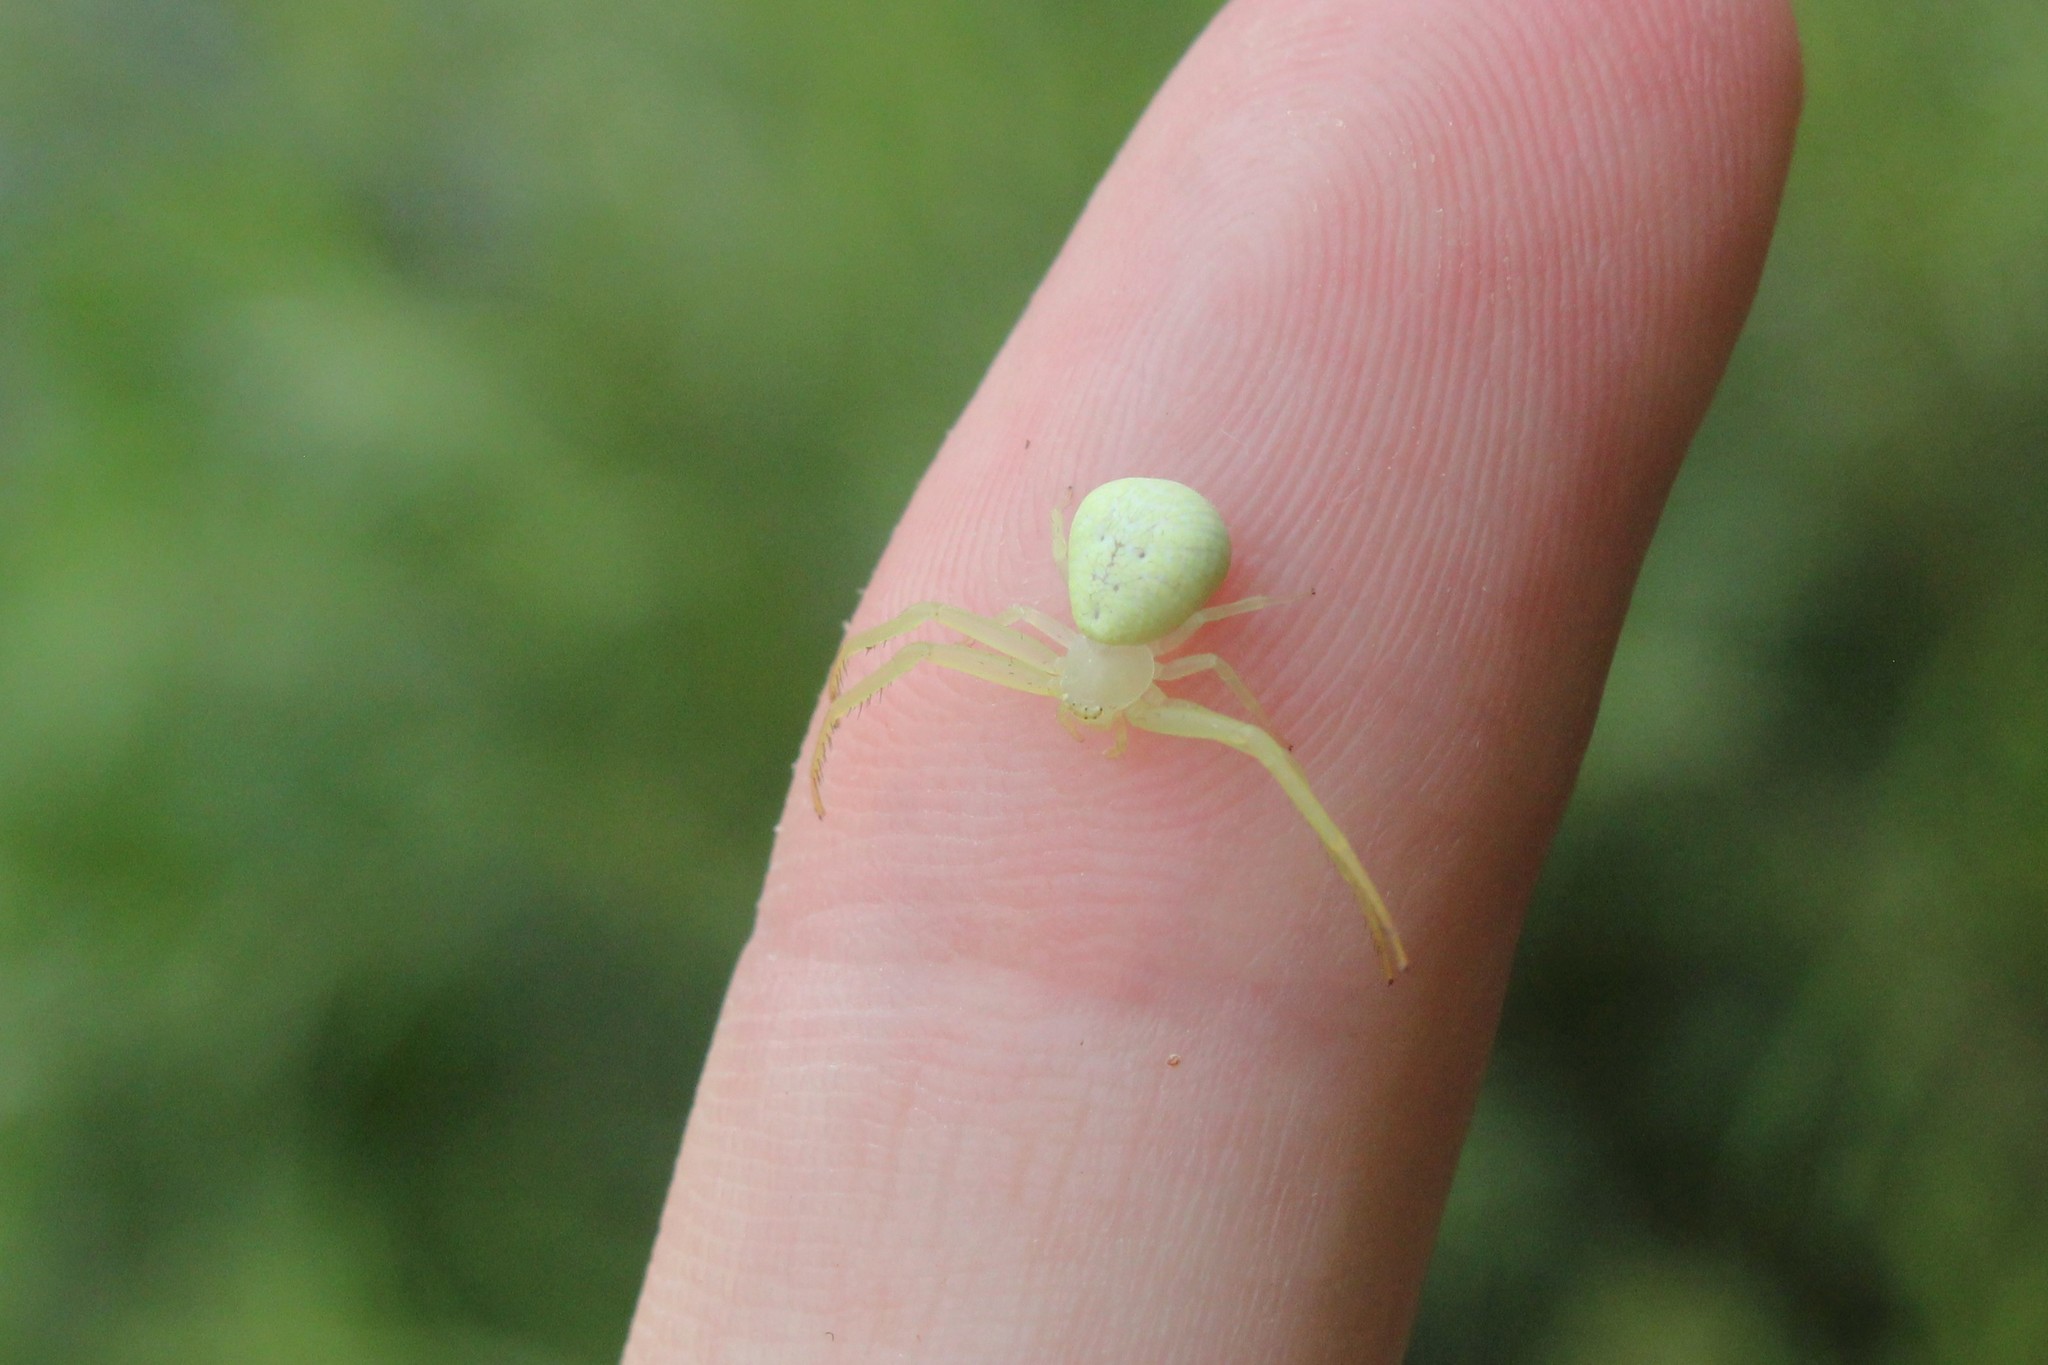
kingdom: Animalia
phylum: Arthropoda
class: Arachnida
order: Araneae
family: Thomisidae
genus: Misumessus
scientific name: Misumessus oblongus
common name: American green crab spider
